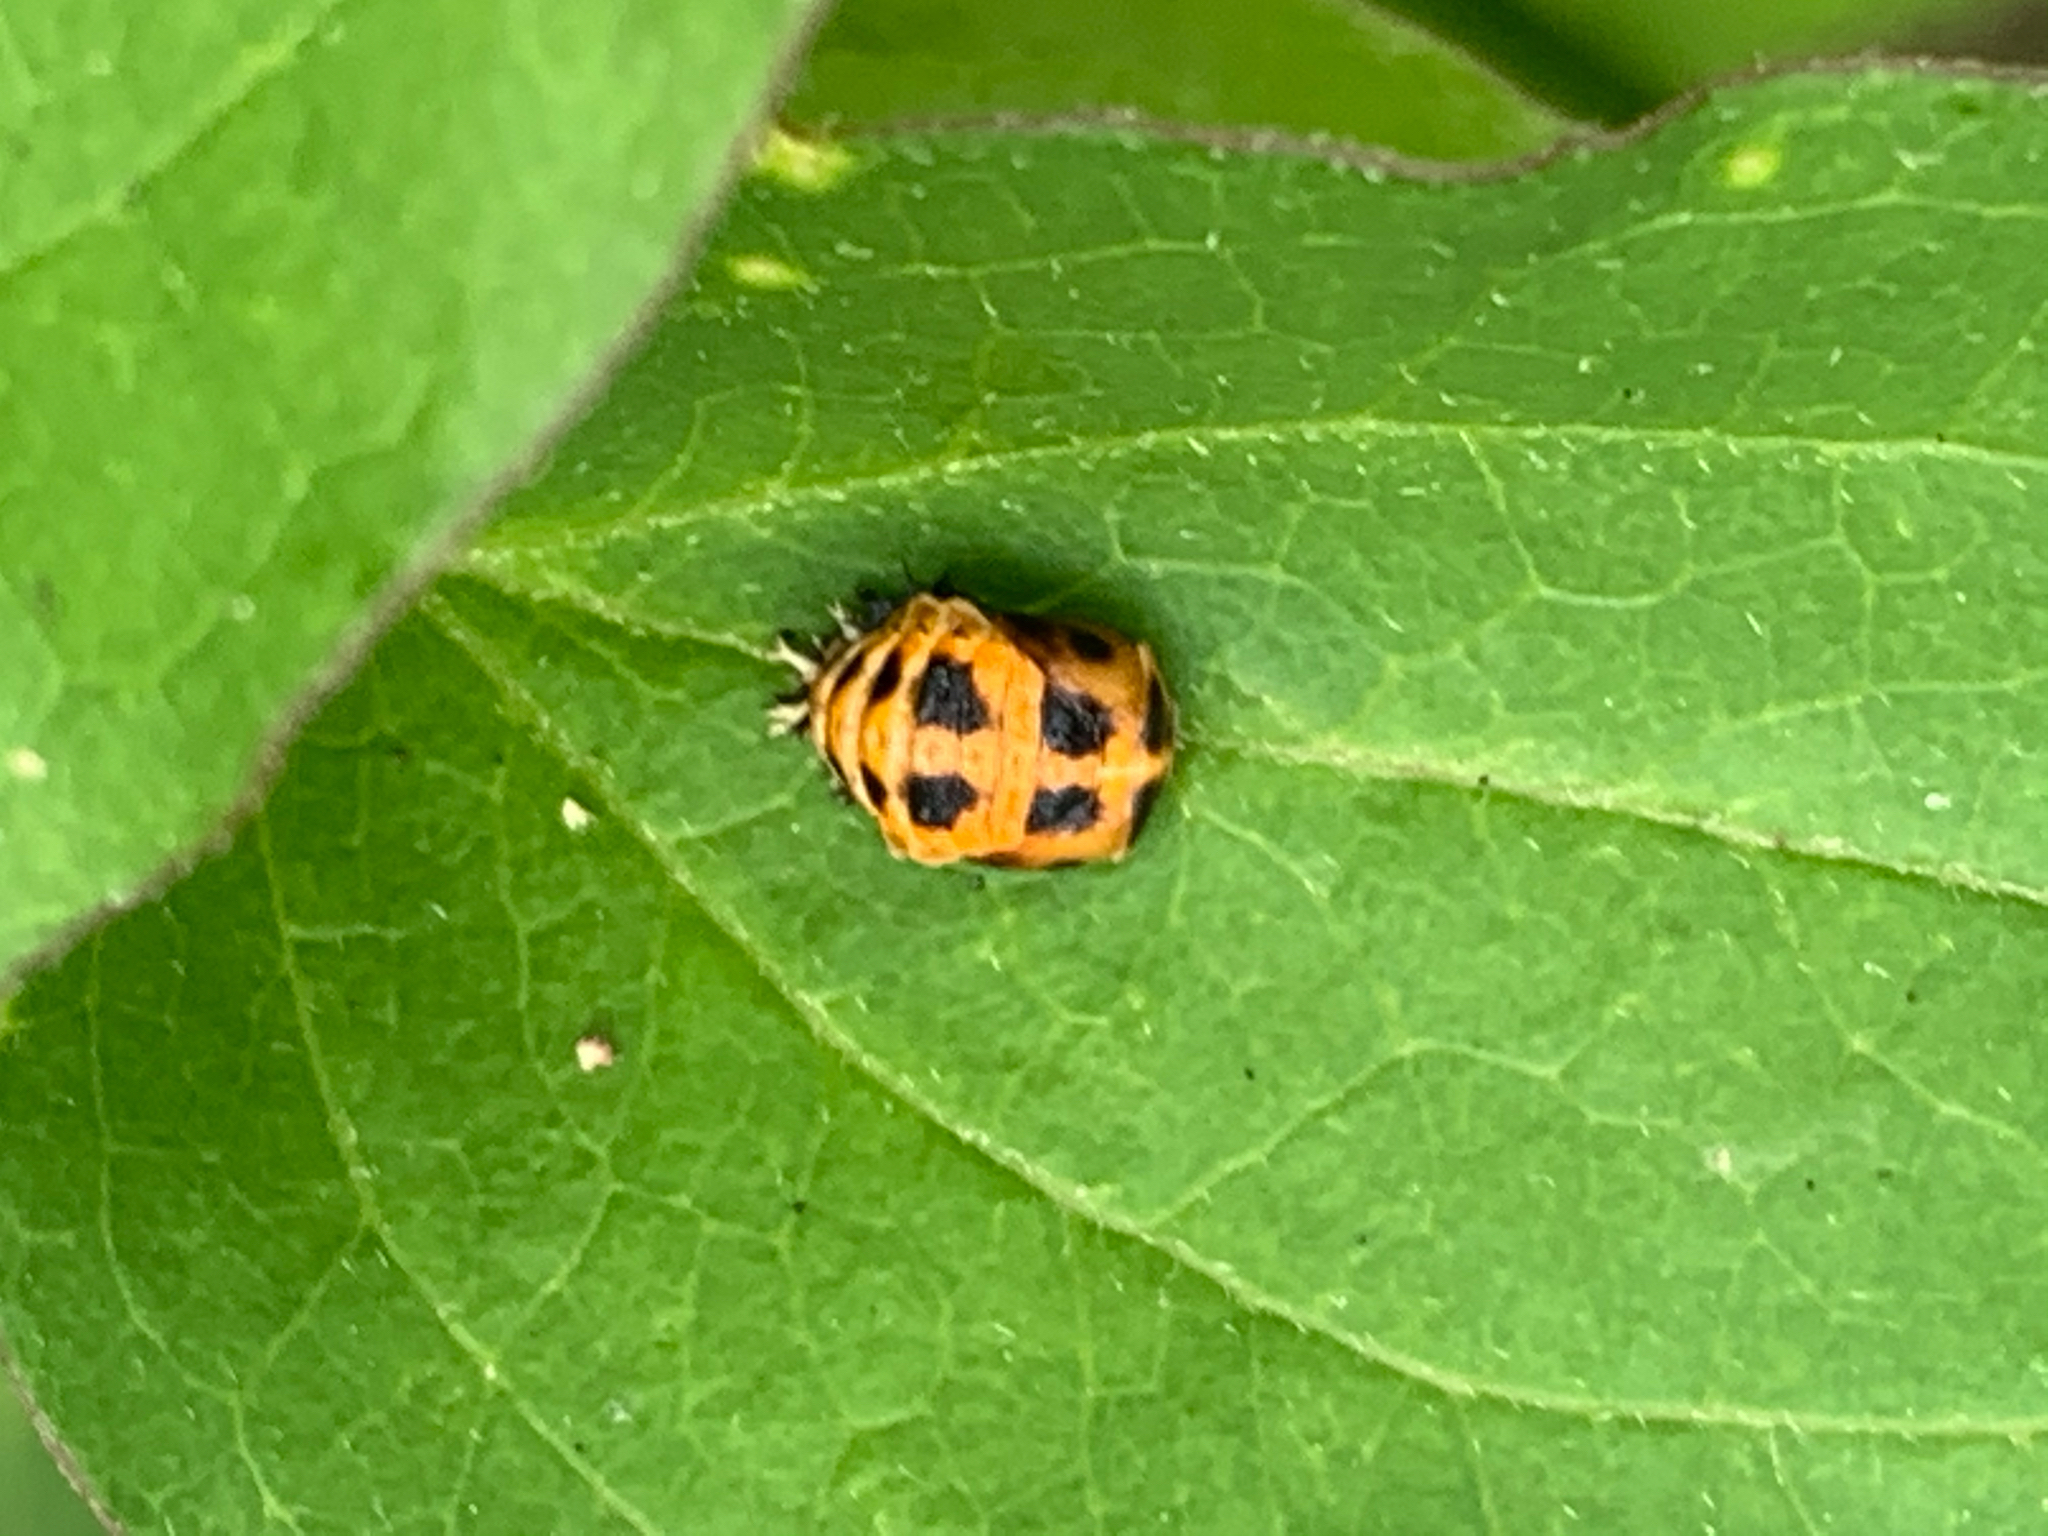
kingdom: Animalia
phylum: Arthropoda
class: Insecta
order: Coleoptera
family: Coccinellidae
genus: Harmonia
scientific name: Harmonia axyridis
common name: Harlequin ladybird
